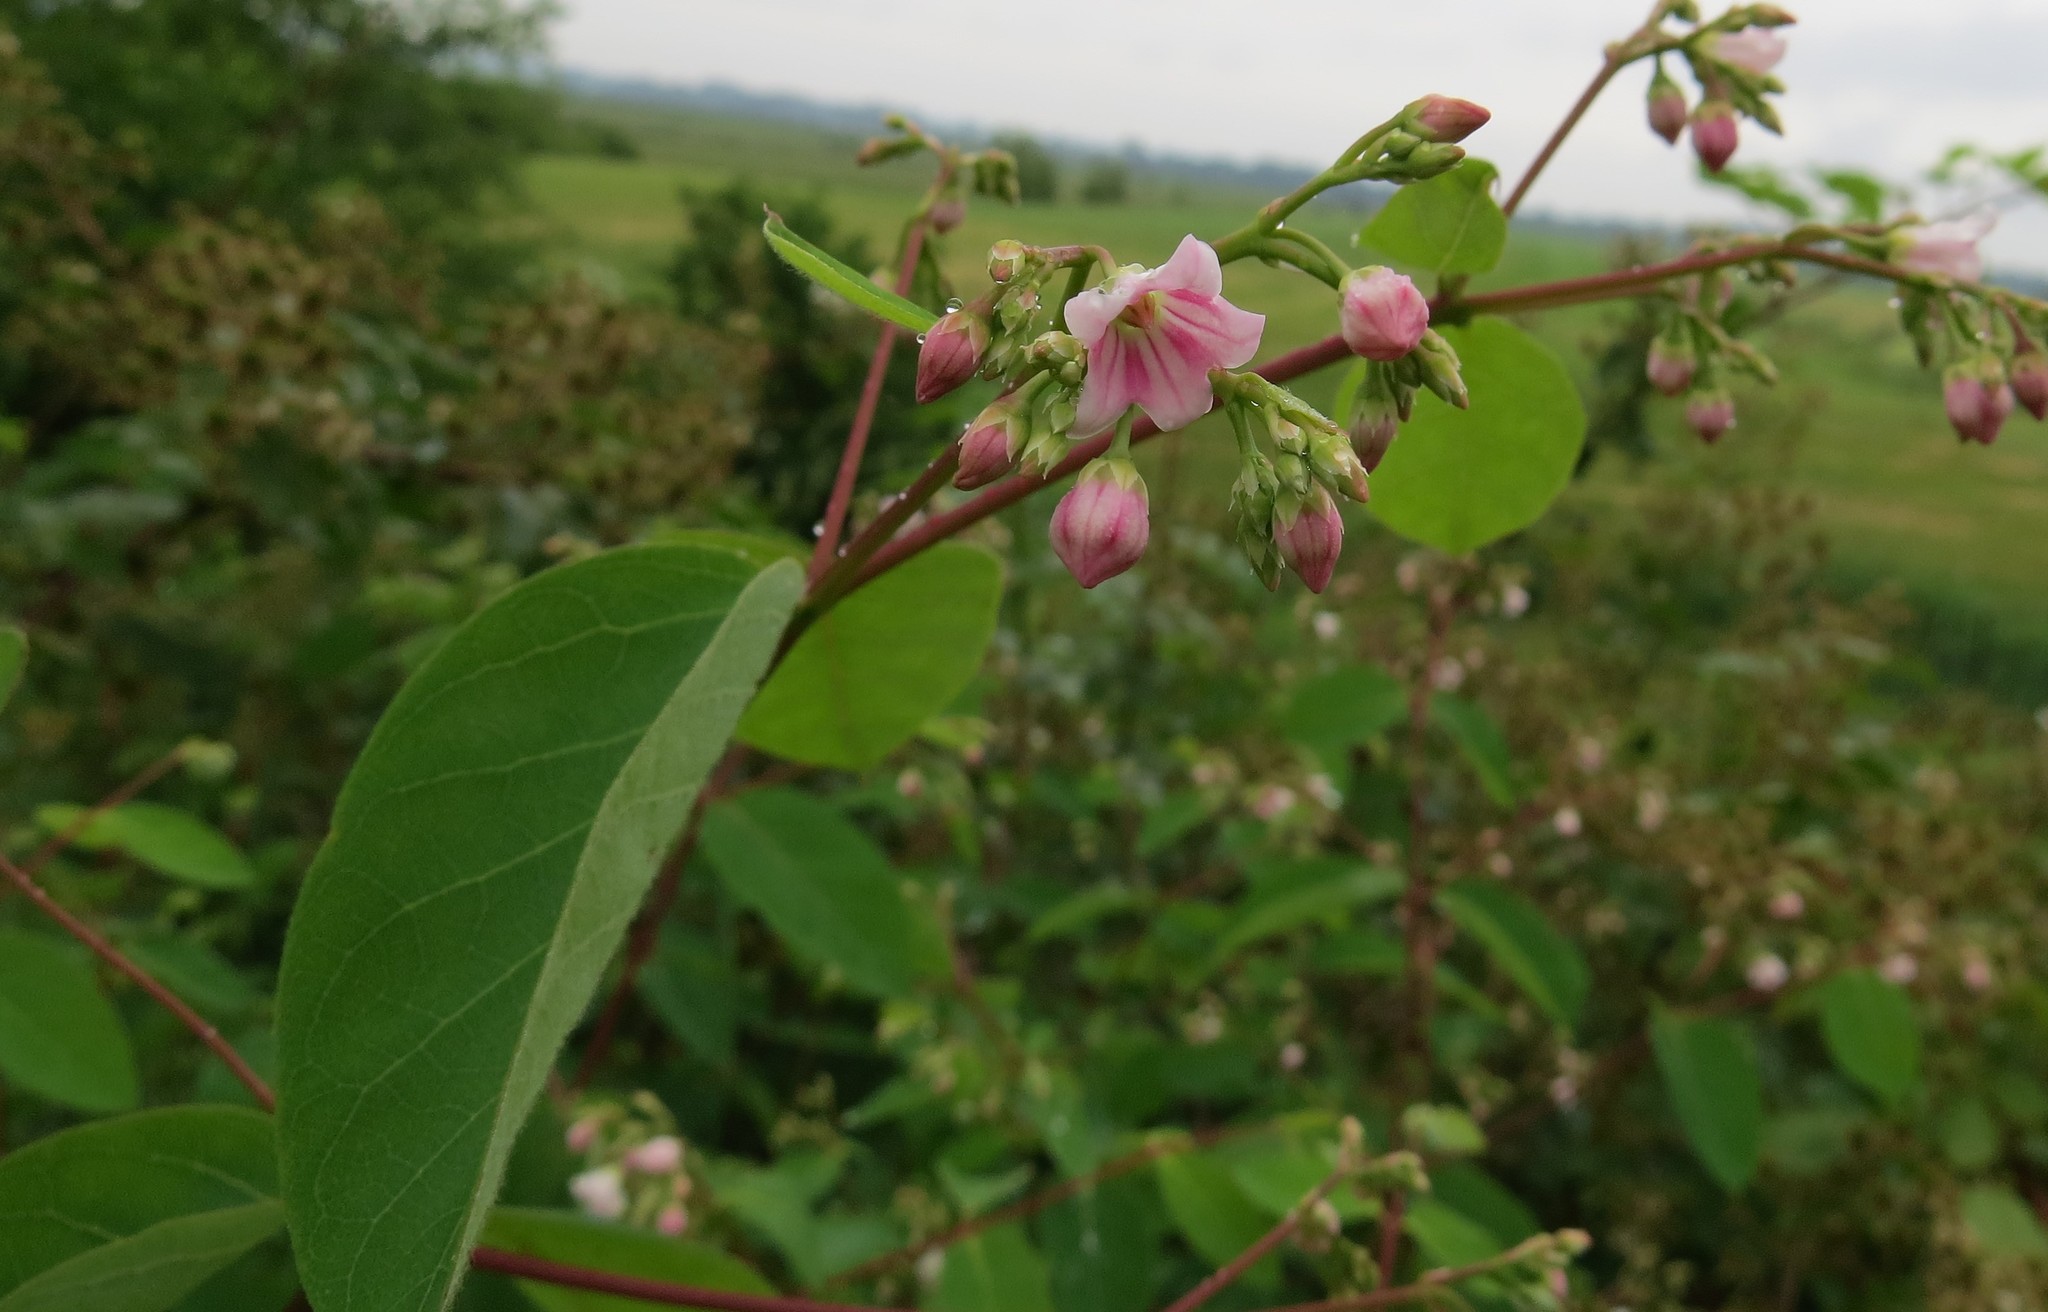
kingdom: Plantae
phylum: Tracheophyta
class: Magnoliopsida
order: Gentianales
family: Apocynaceae
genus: Apocynum
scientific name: Apocynum androsaemifolium
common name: Spreading dogbane
